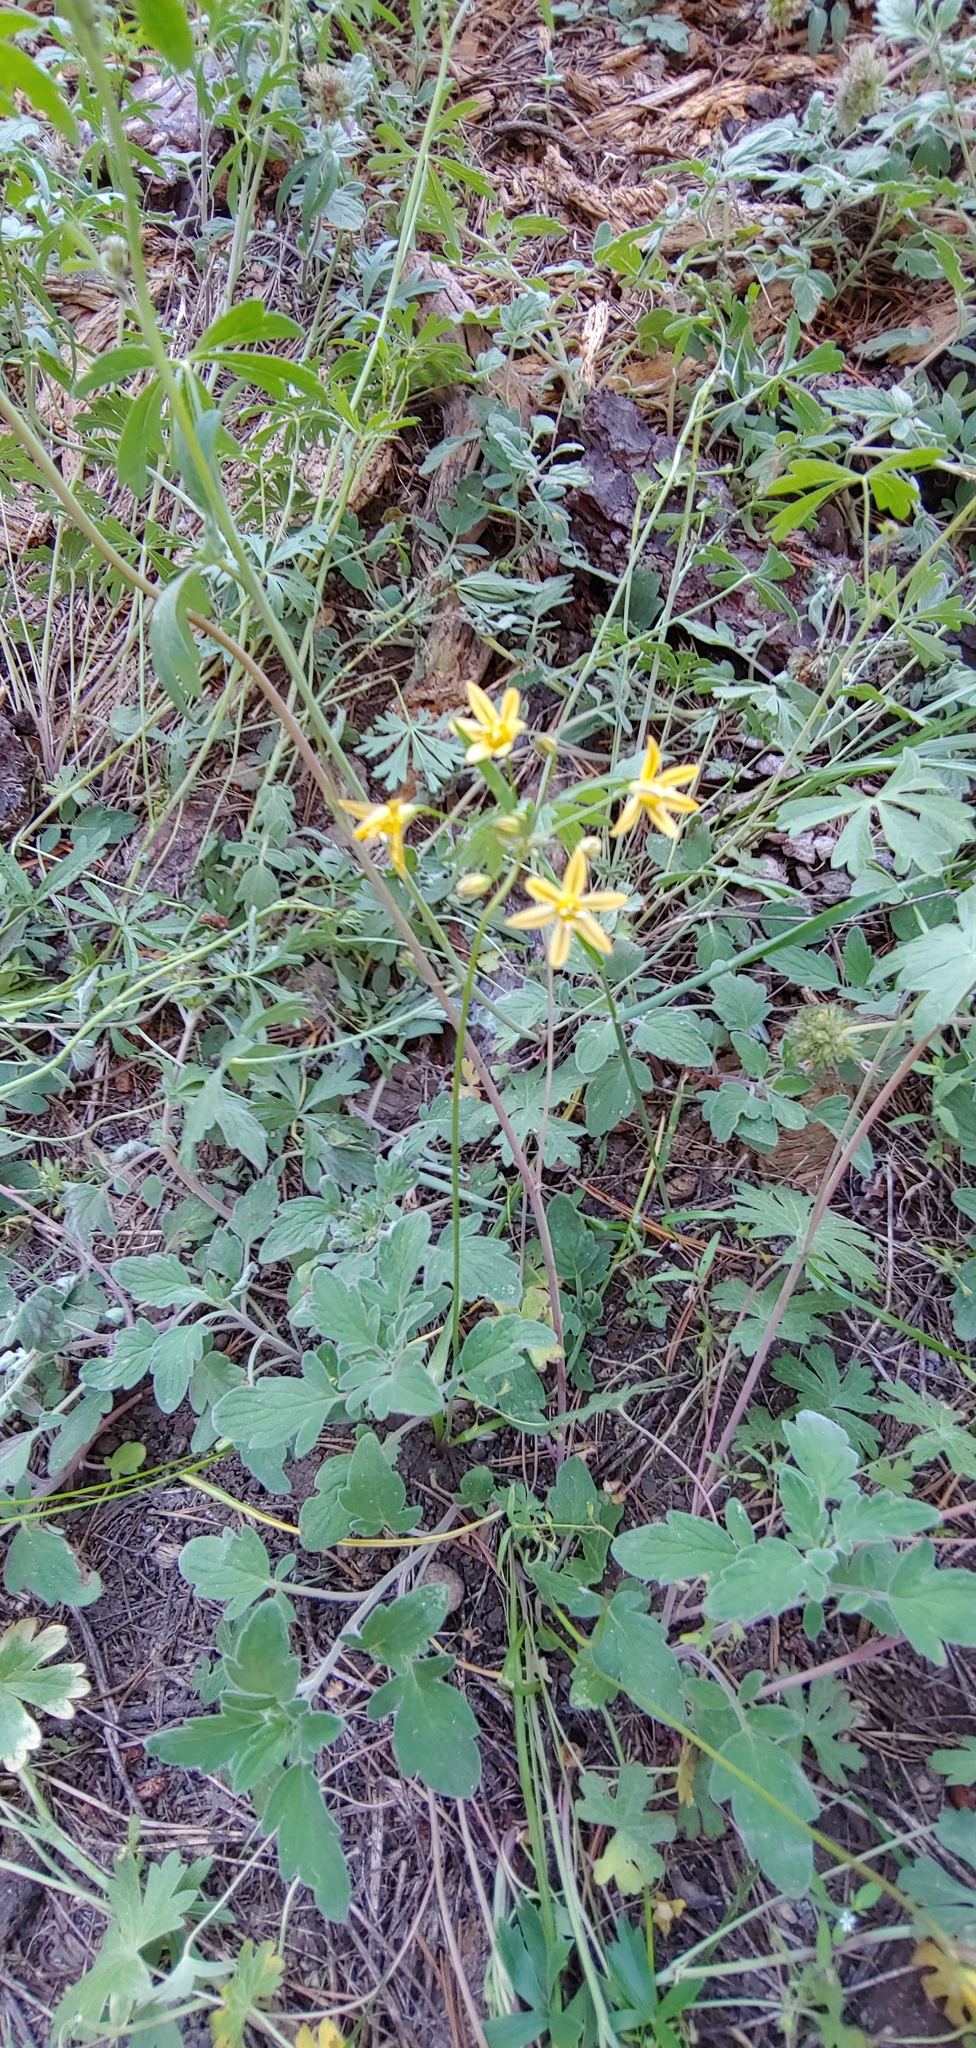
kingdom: Plantae
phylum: Tracheophyta
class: Liliopsida
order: Asparagales
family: Asparagaceae
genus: Triteleia
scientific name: Triteleia ixioides
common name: Yellow-brodiaea
